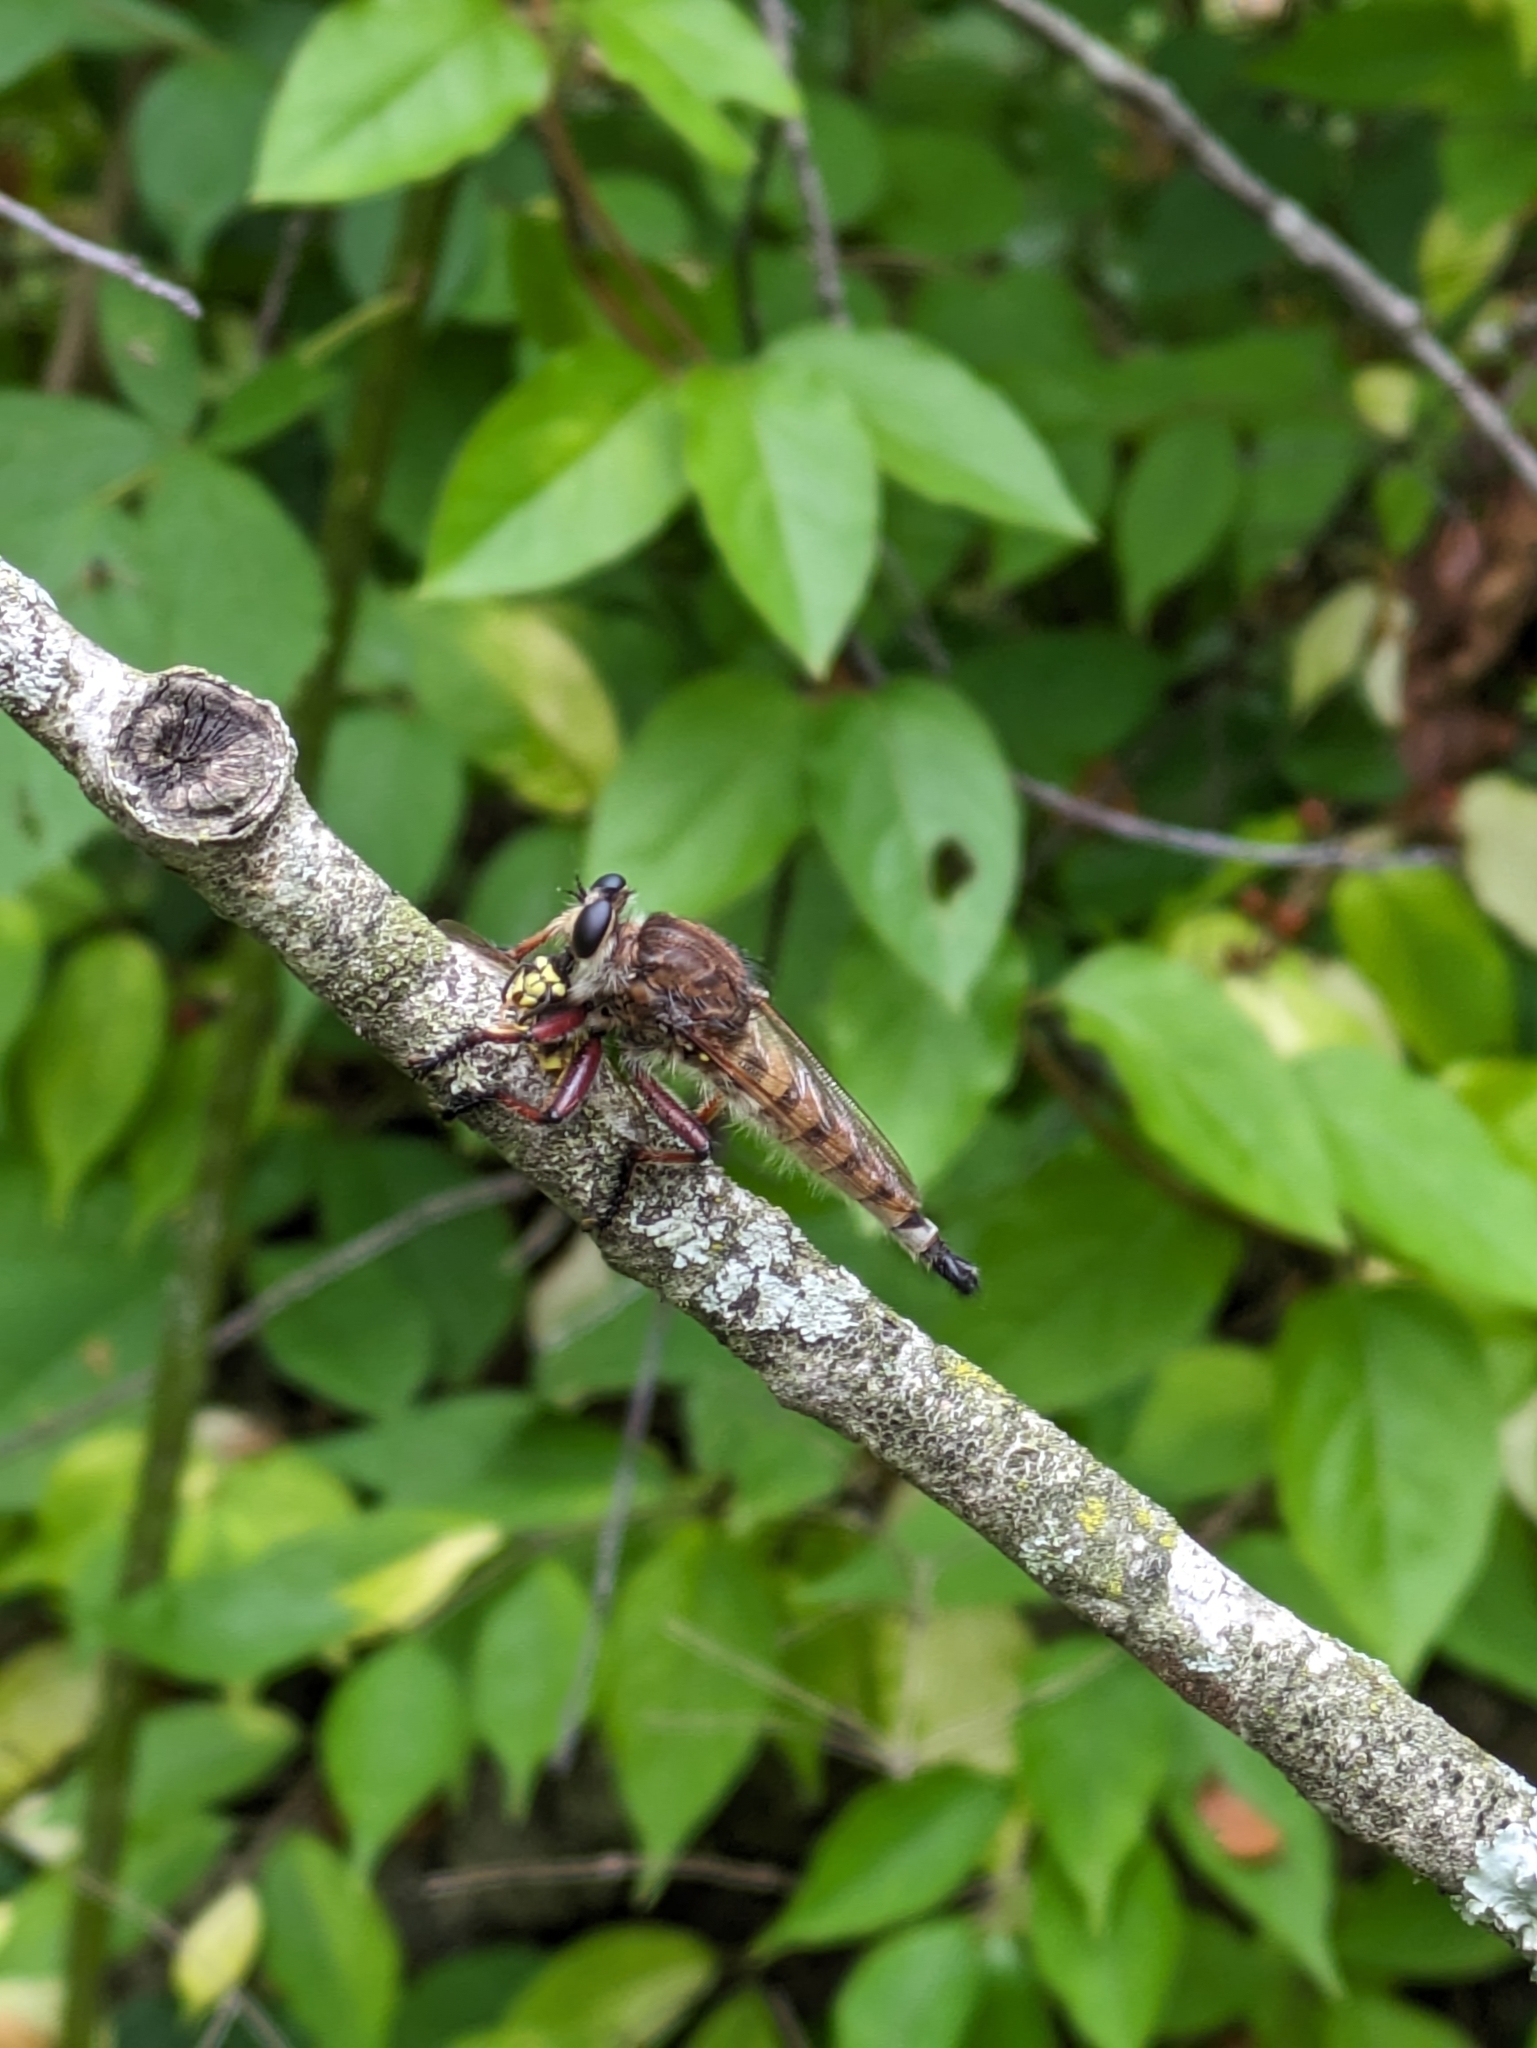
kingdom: Animalia
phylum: Arthropoda
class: Insecta
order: Diptera
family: Asilidae
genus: Promachus
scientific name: Promachus hinei
